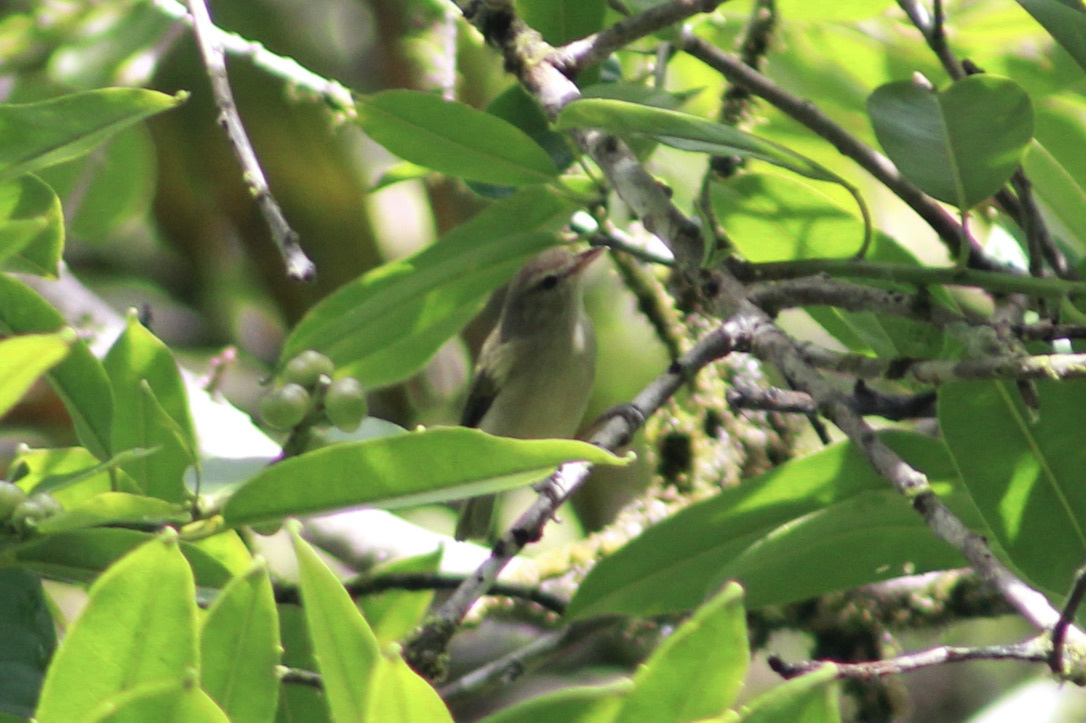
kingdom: Animalia
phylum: Chordata
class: Aves
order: Passeriformes
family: Vireonidae
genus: Vireo
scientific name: Vireo olivaceus
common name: Red-eyed vireo
